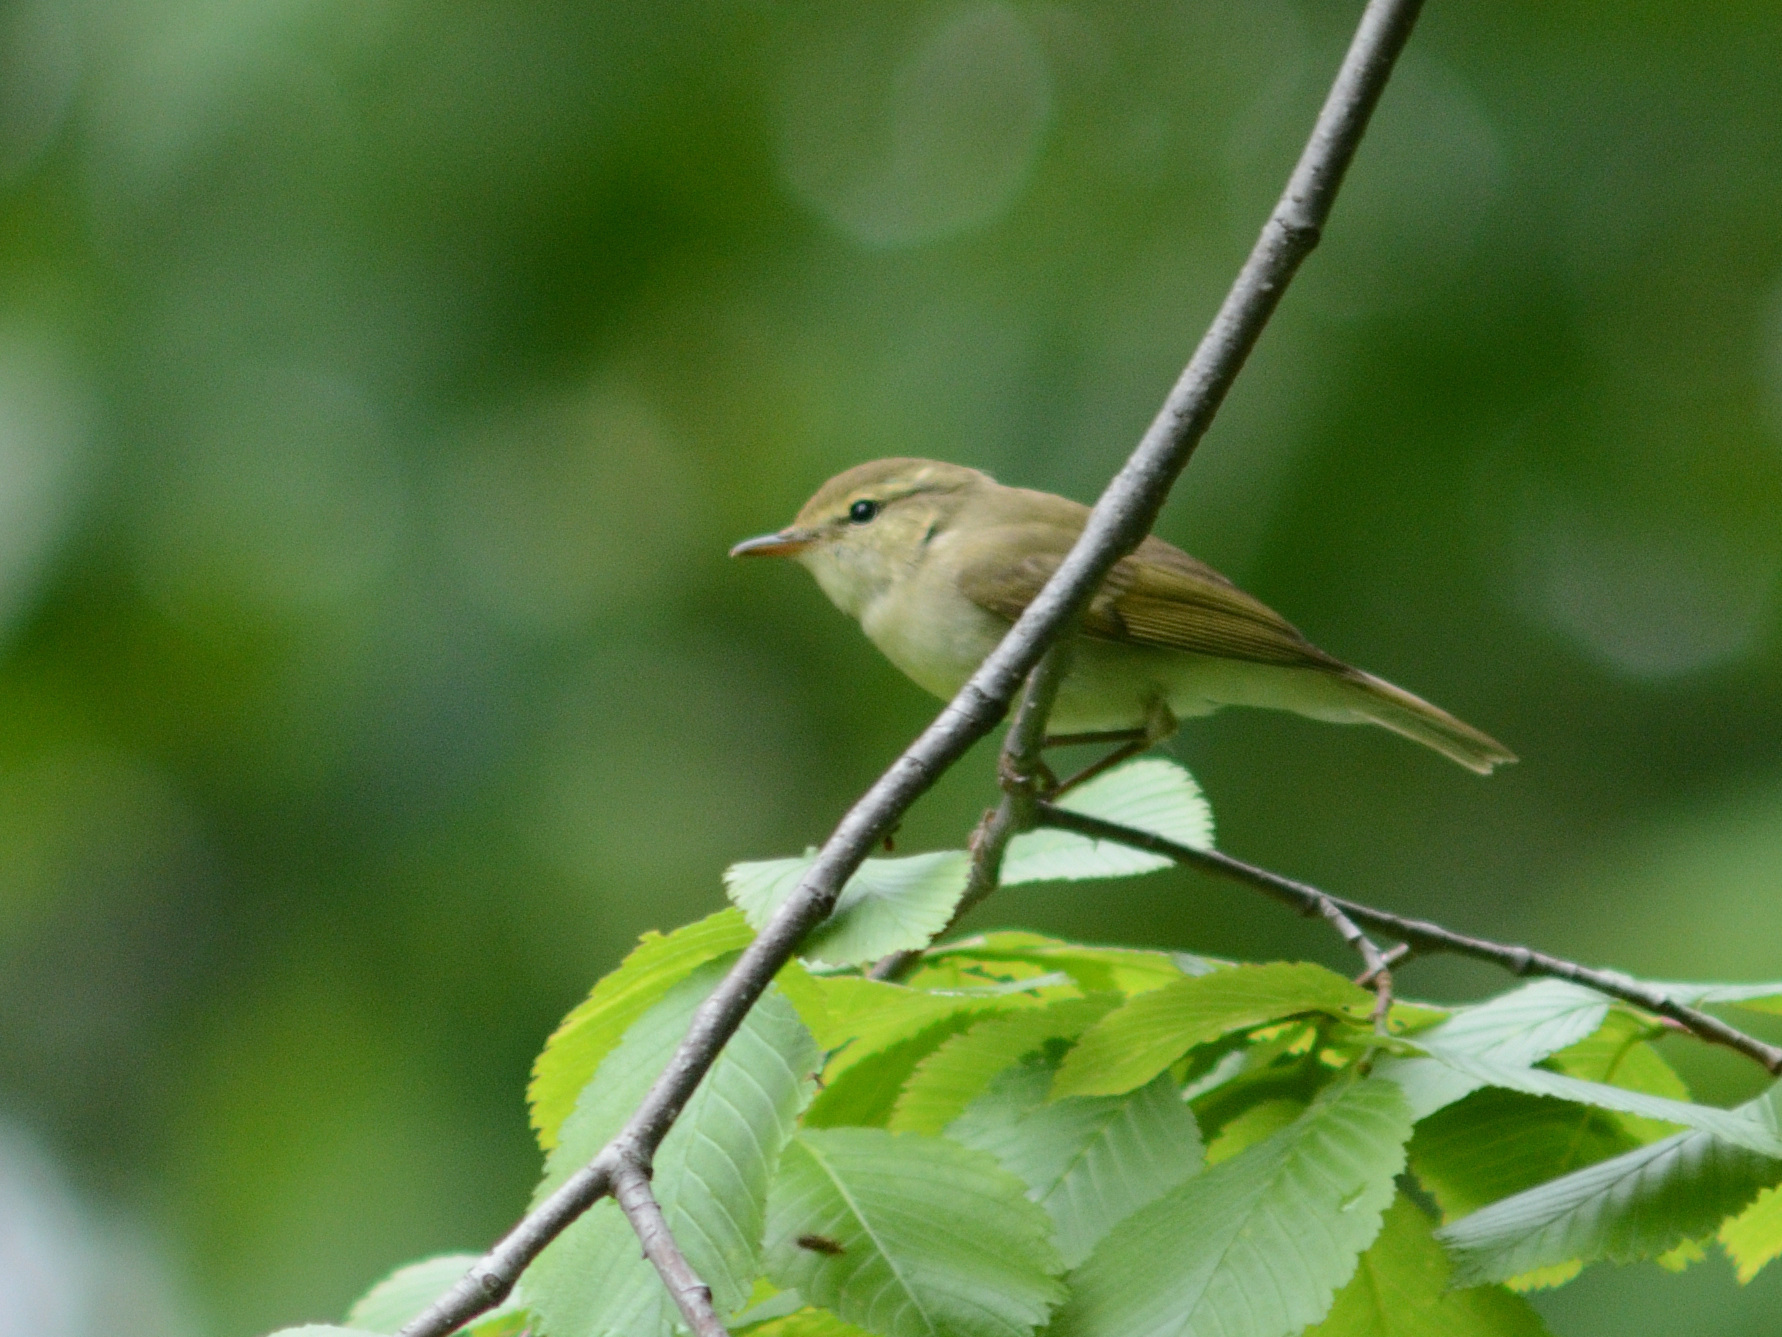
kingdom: Animalia
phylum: Chordata
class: Aves
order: Passeriformes
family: Phylloscopidae
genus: Phylloscopus
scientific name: Phylloscopus trochiloides
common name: Greenish warbler
